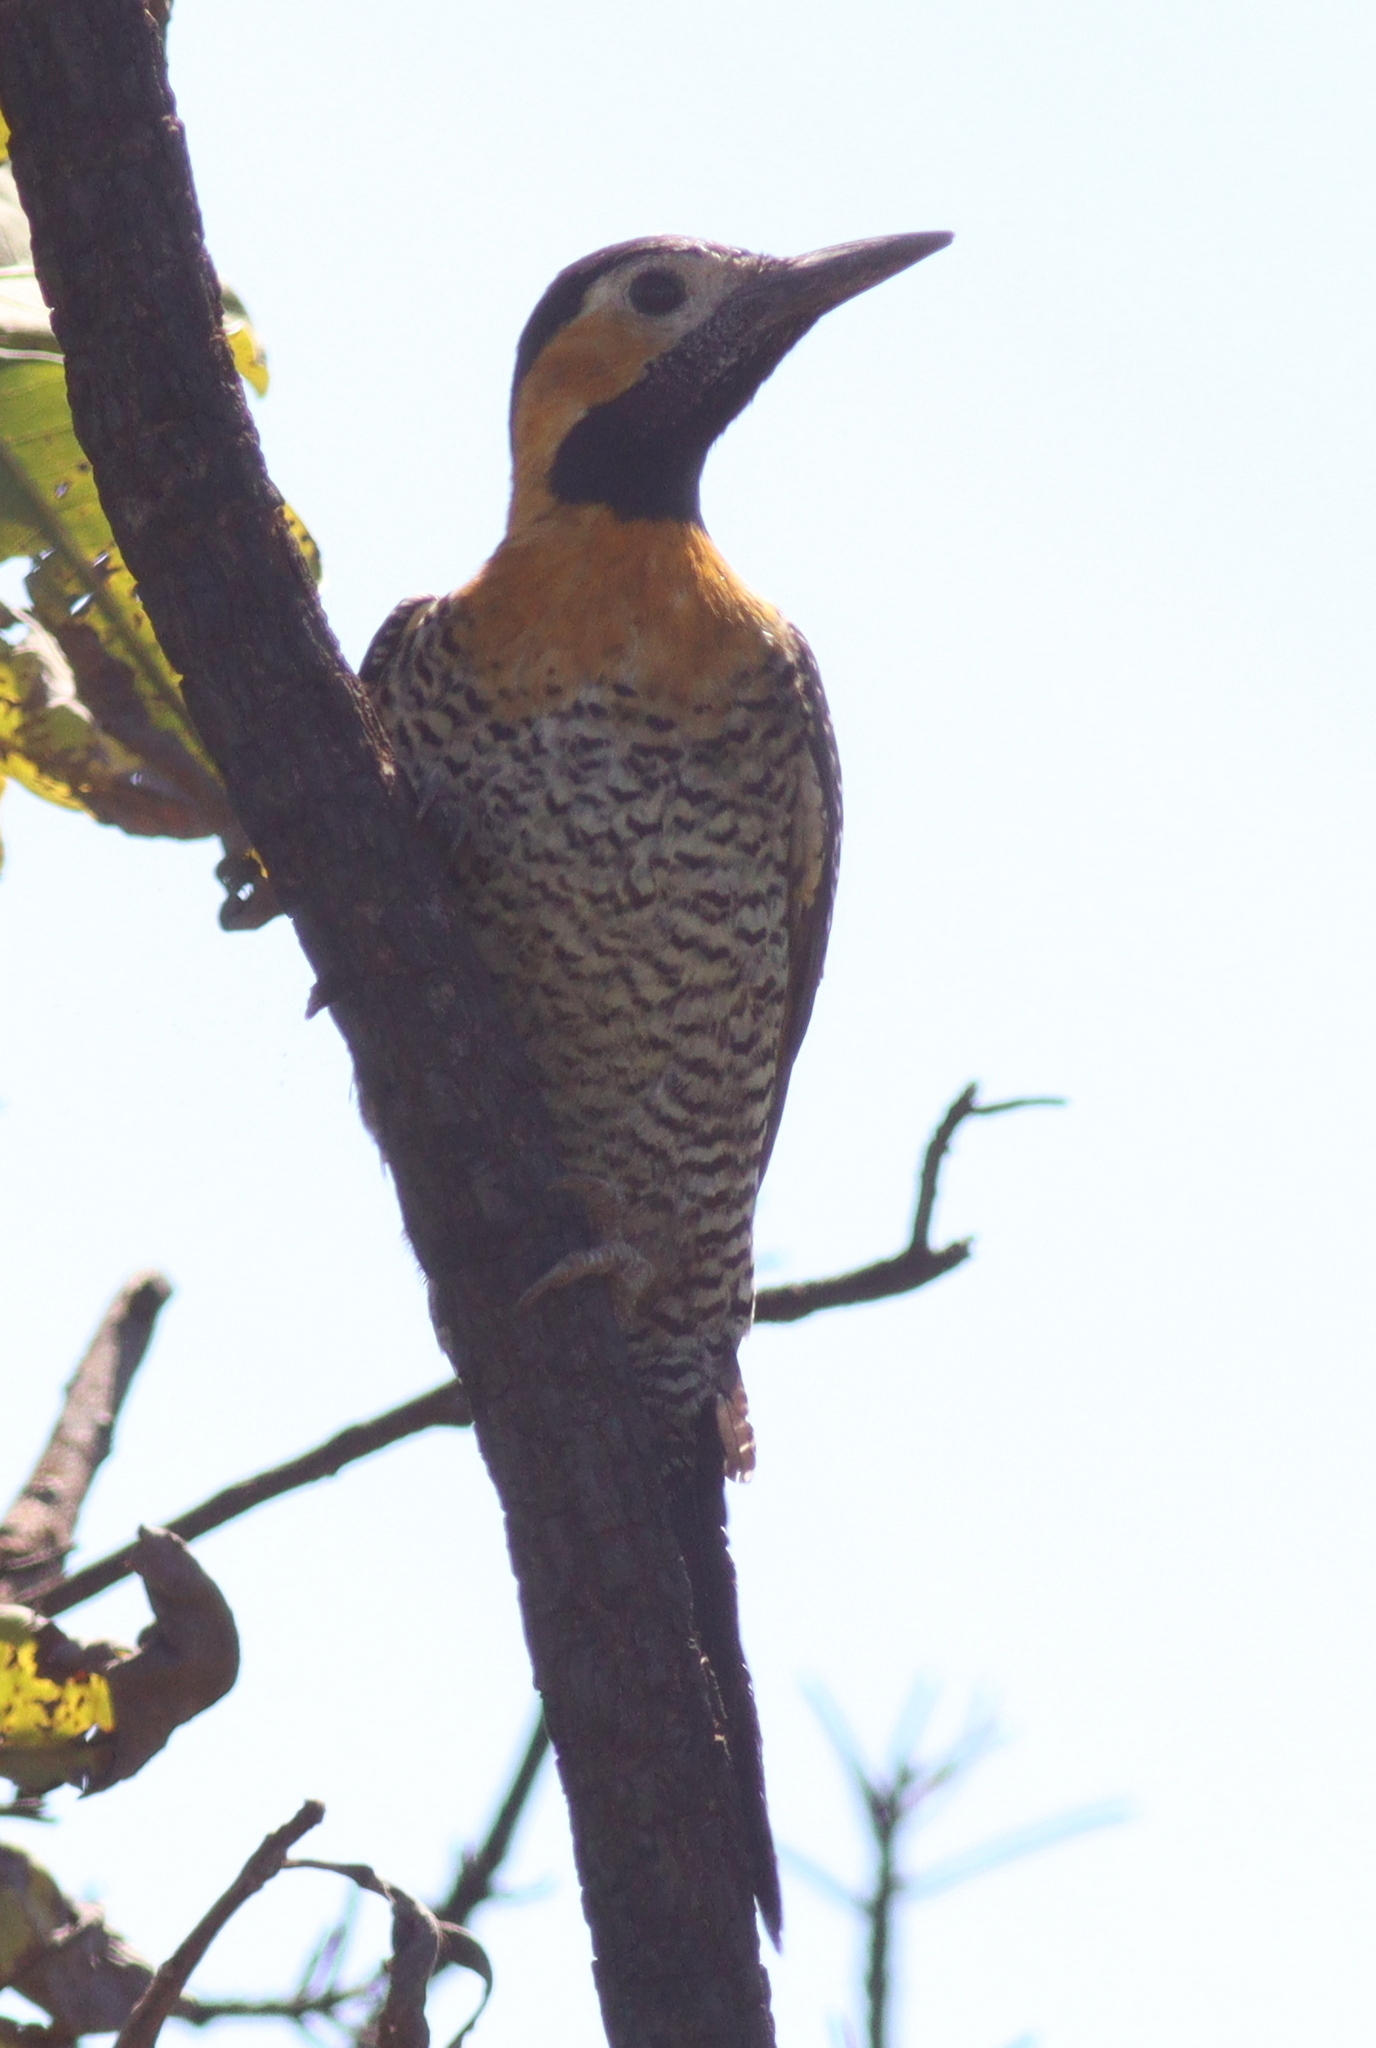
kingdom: Animalia
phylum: Chordata
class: Aves
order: Piciformes
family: Picidae
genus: Colaptes
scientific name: Colaptes campestris
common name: Campo flicker
